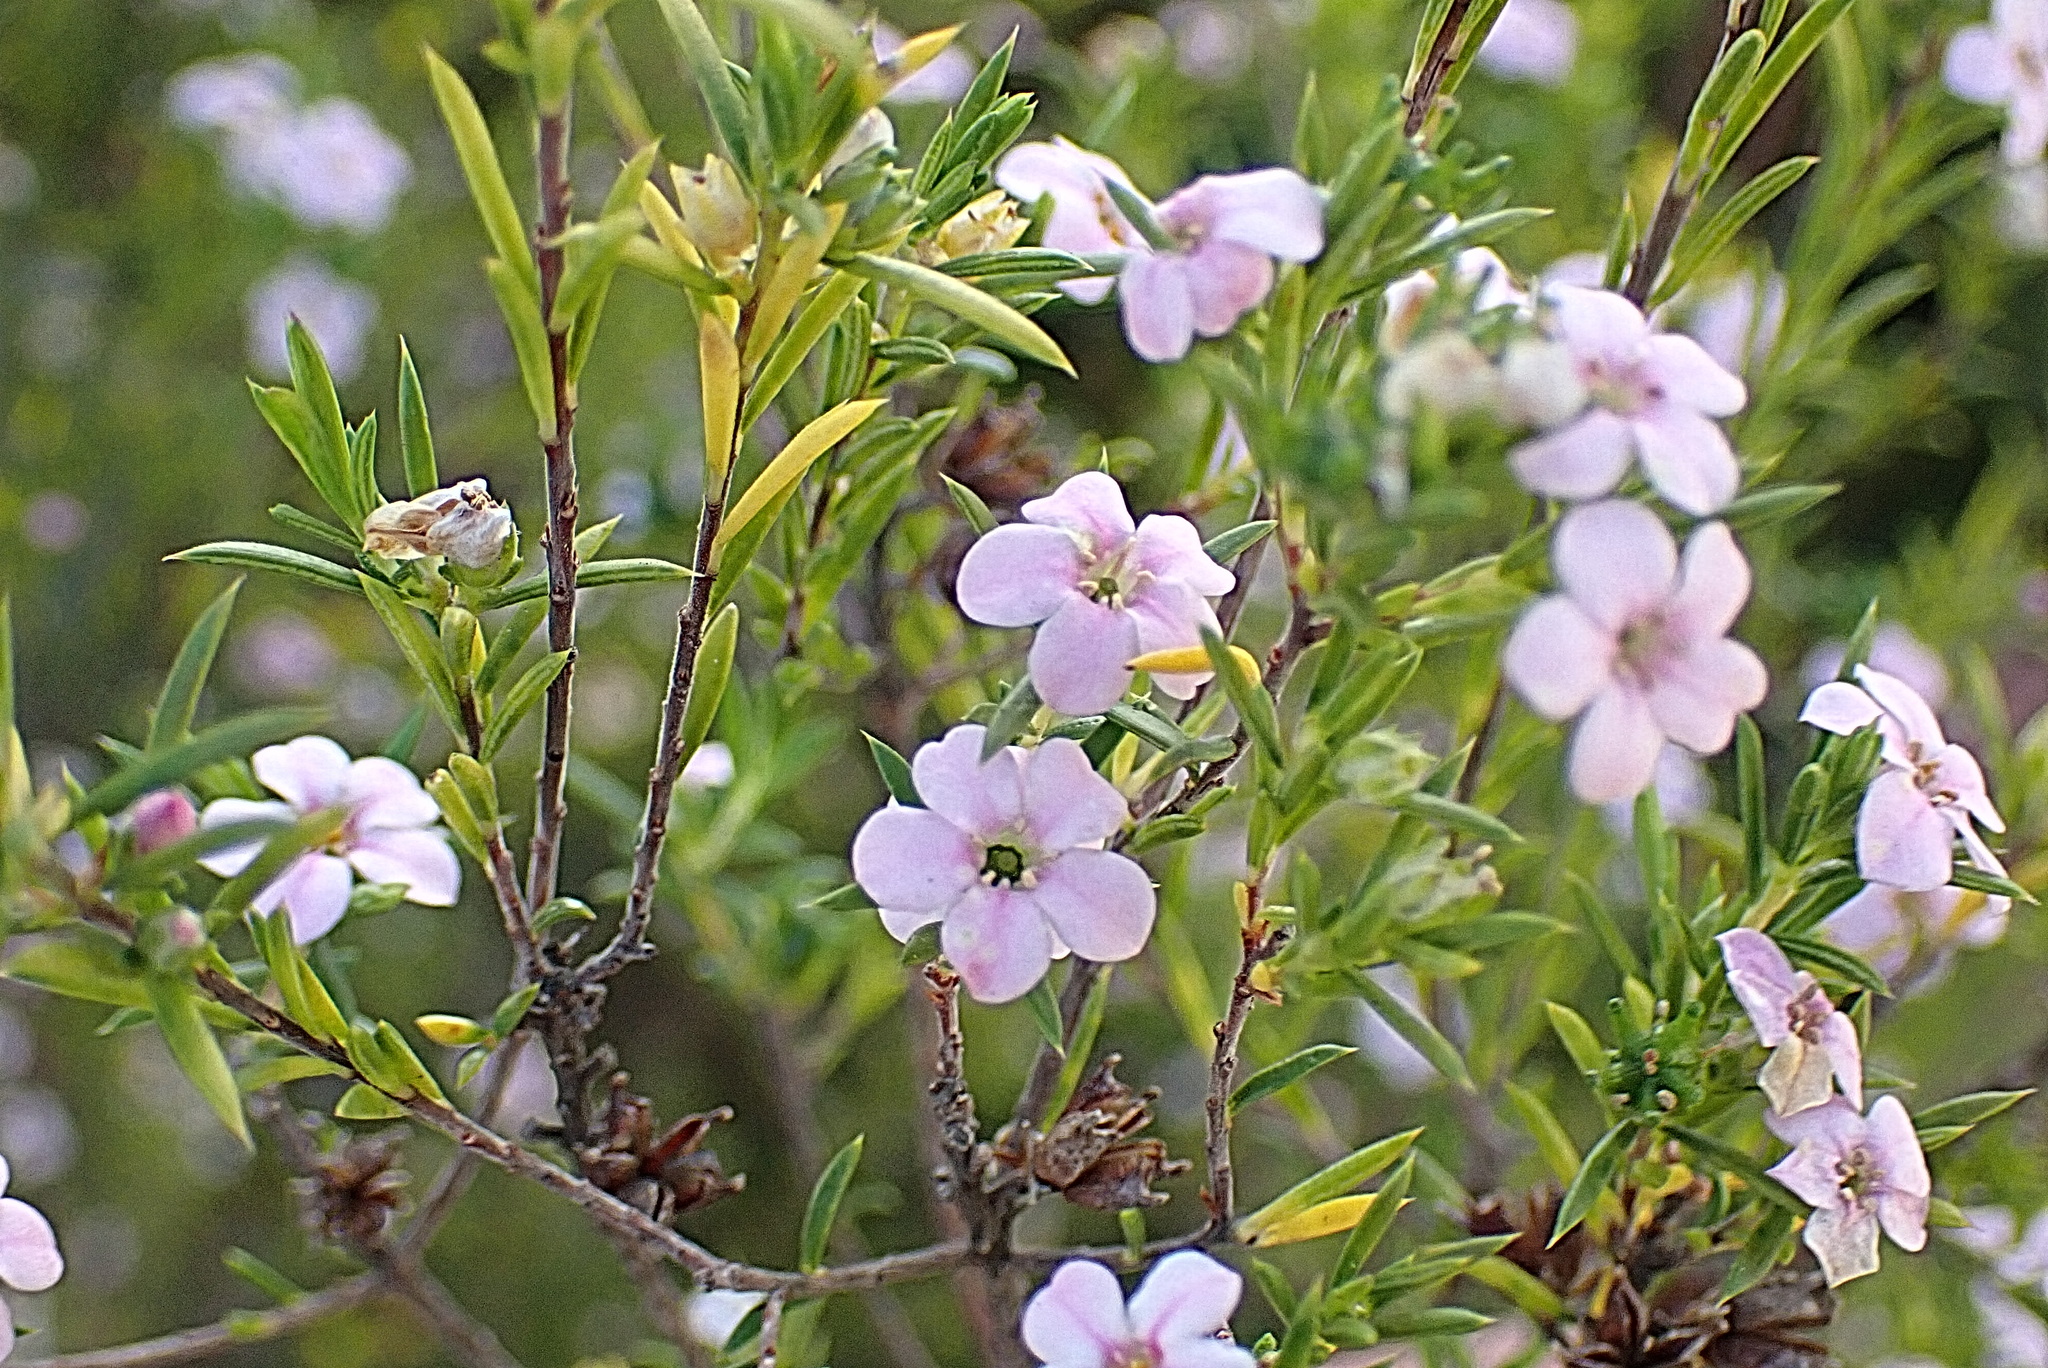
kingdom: Plantae
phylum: Tracheophyta
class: Magnoliopsida
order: Sapindales
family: Rutaceae
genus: Coleonema
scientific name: Coleonema pulchellum
